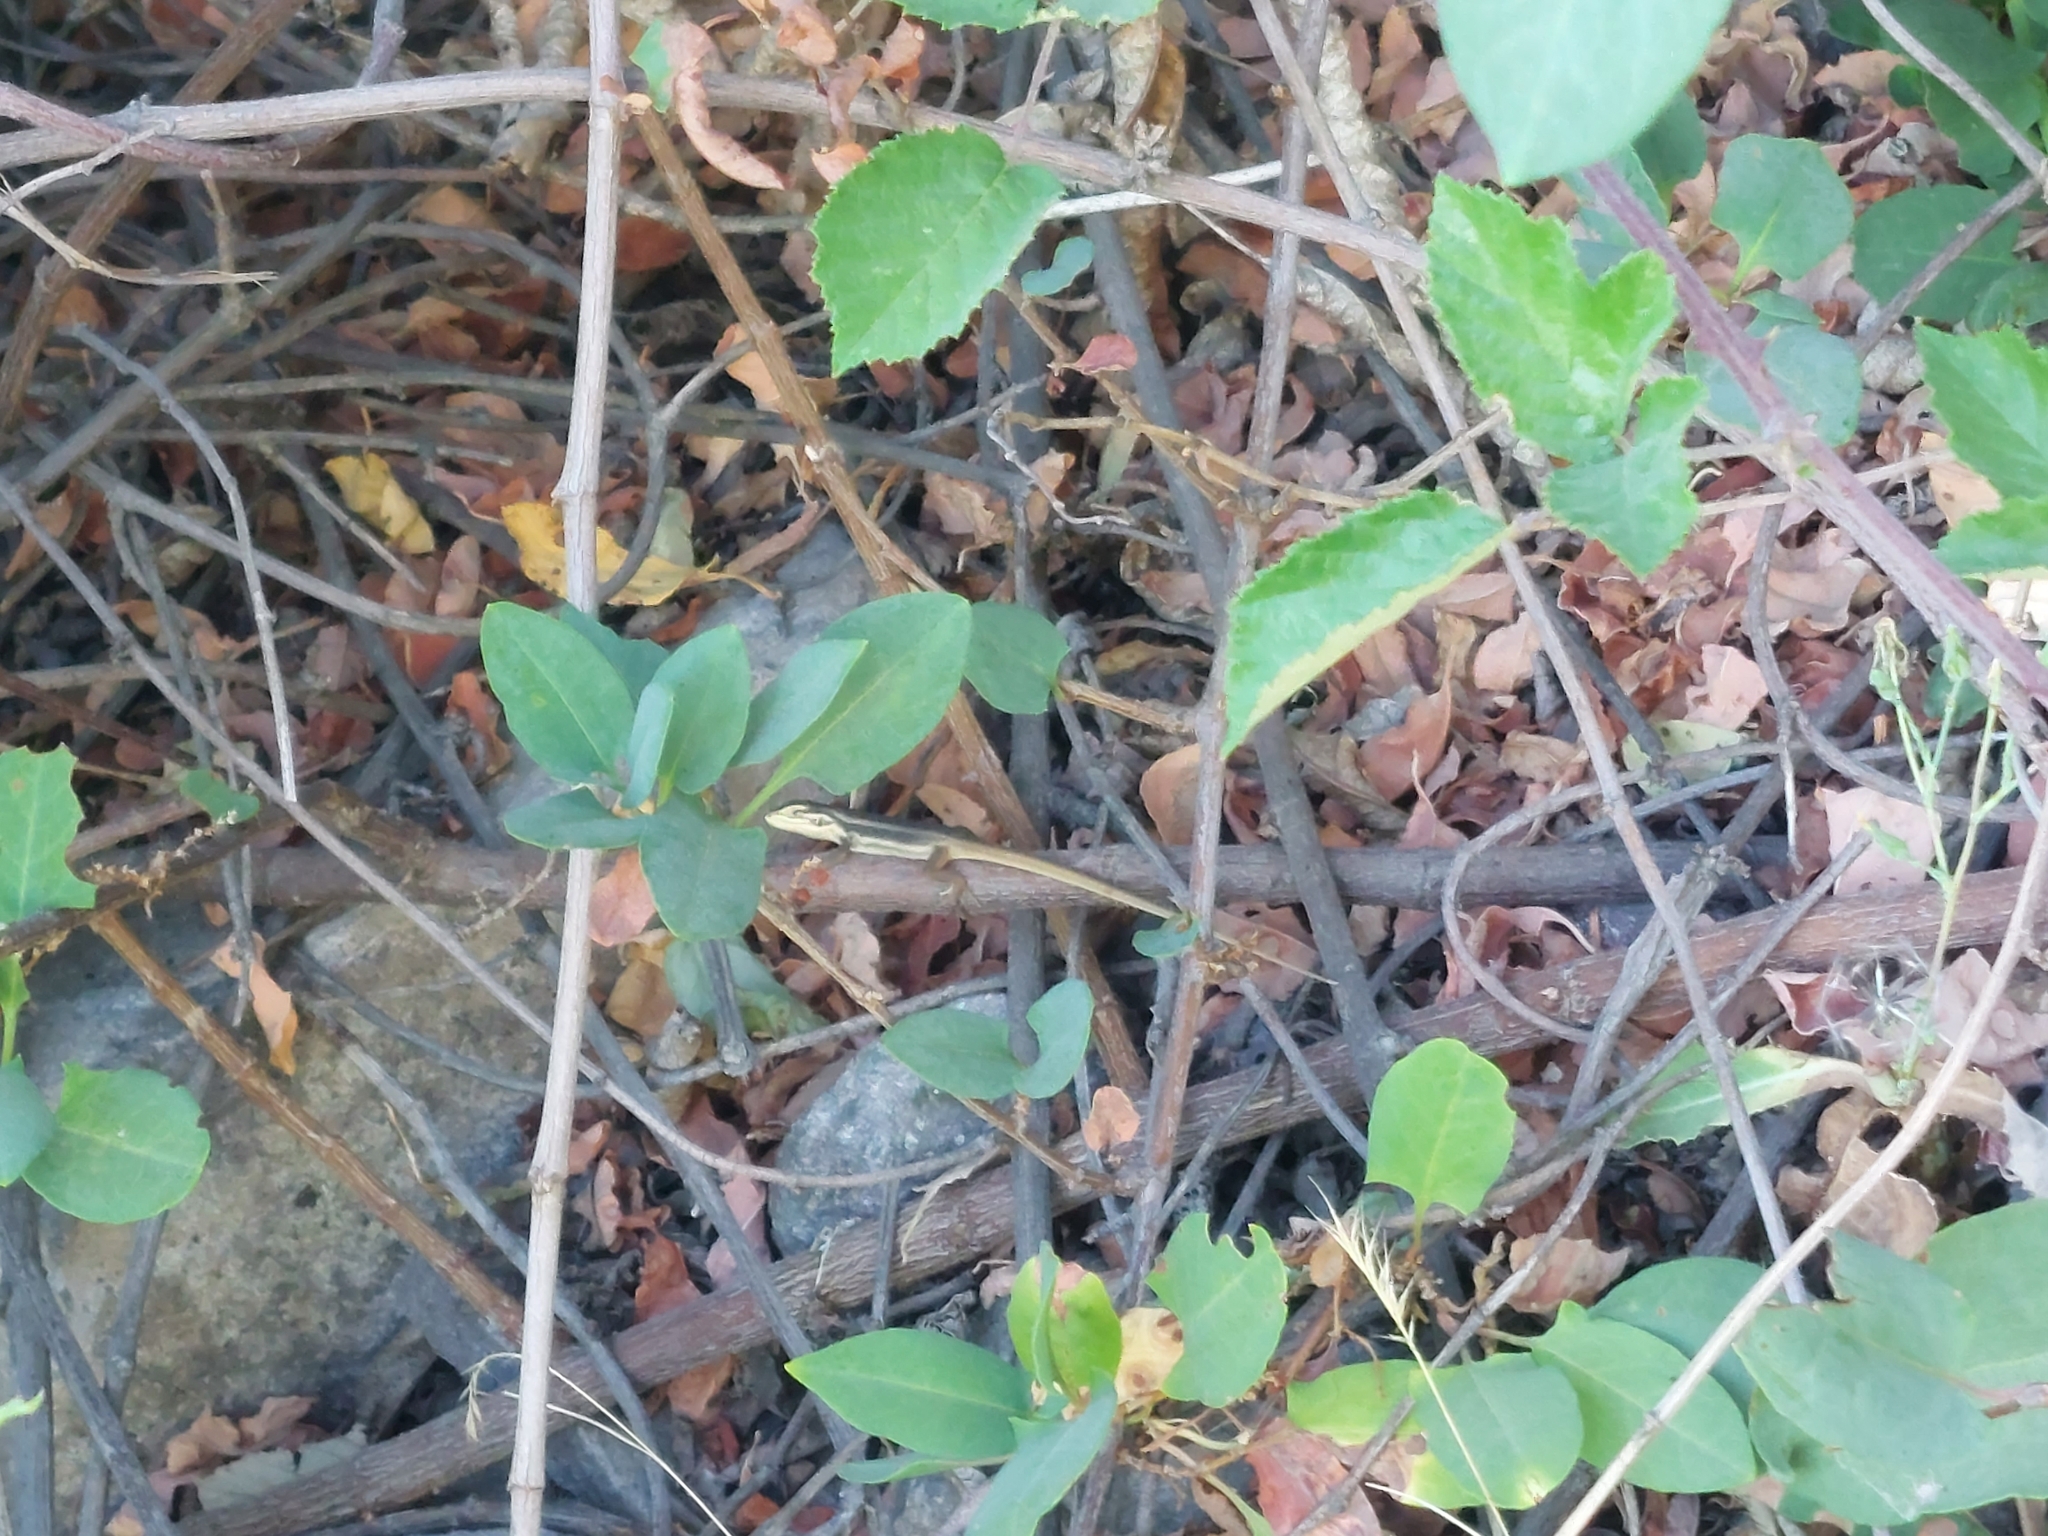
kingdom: Animalia
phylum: Chordata
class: Squamata
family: Liolaemidae
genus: Liolaemus
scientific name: Liolaemus chiliensis
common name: Chilean tree iguana
